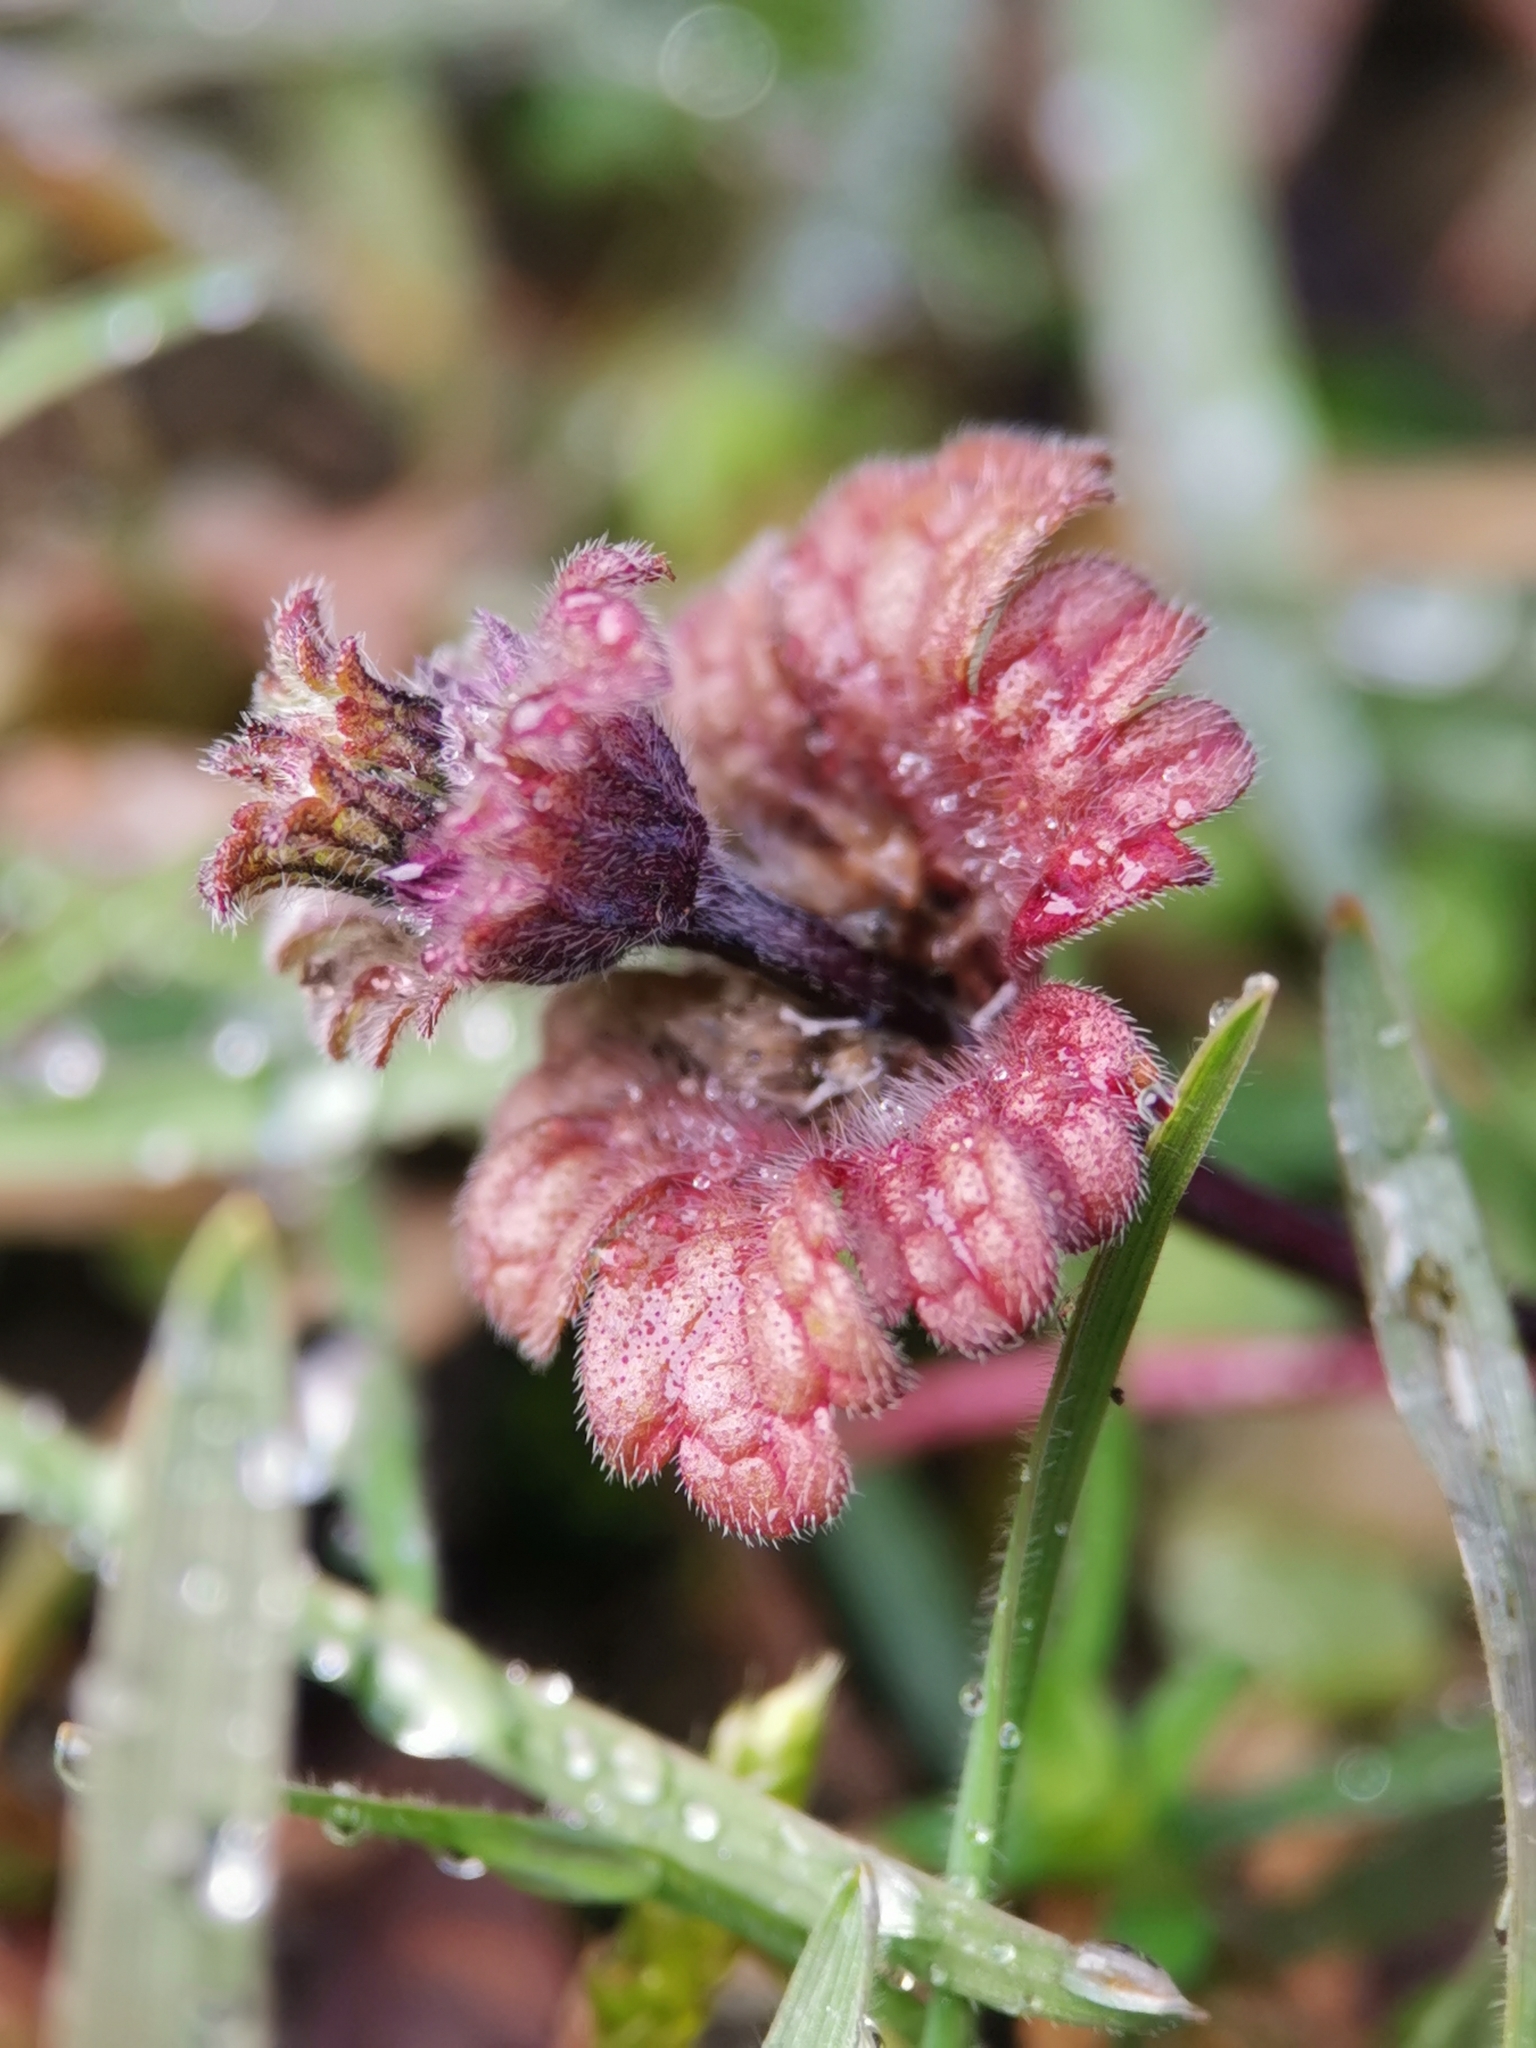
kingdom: Plantae
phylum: Tracheophyta
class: Magnoliopsida
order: Lamiales
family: Lamiaceae
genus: Lamium
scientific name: Lamium amplexicaule
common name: Henbit dead-nettle
